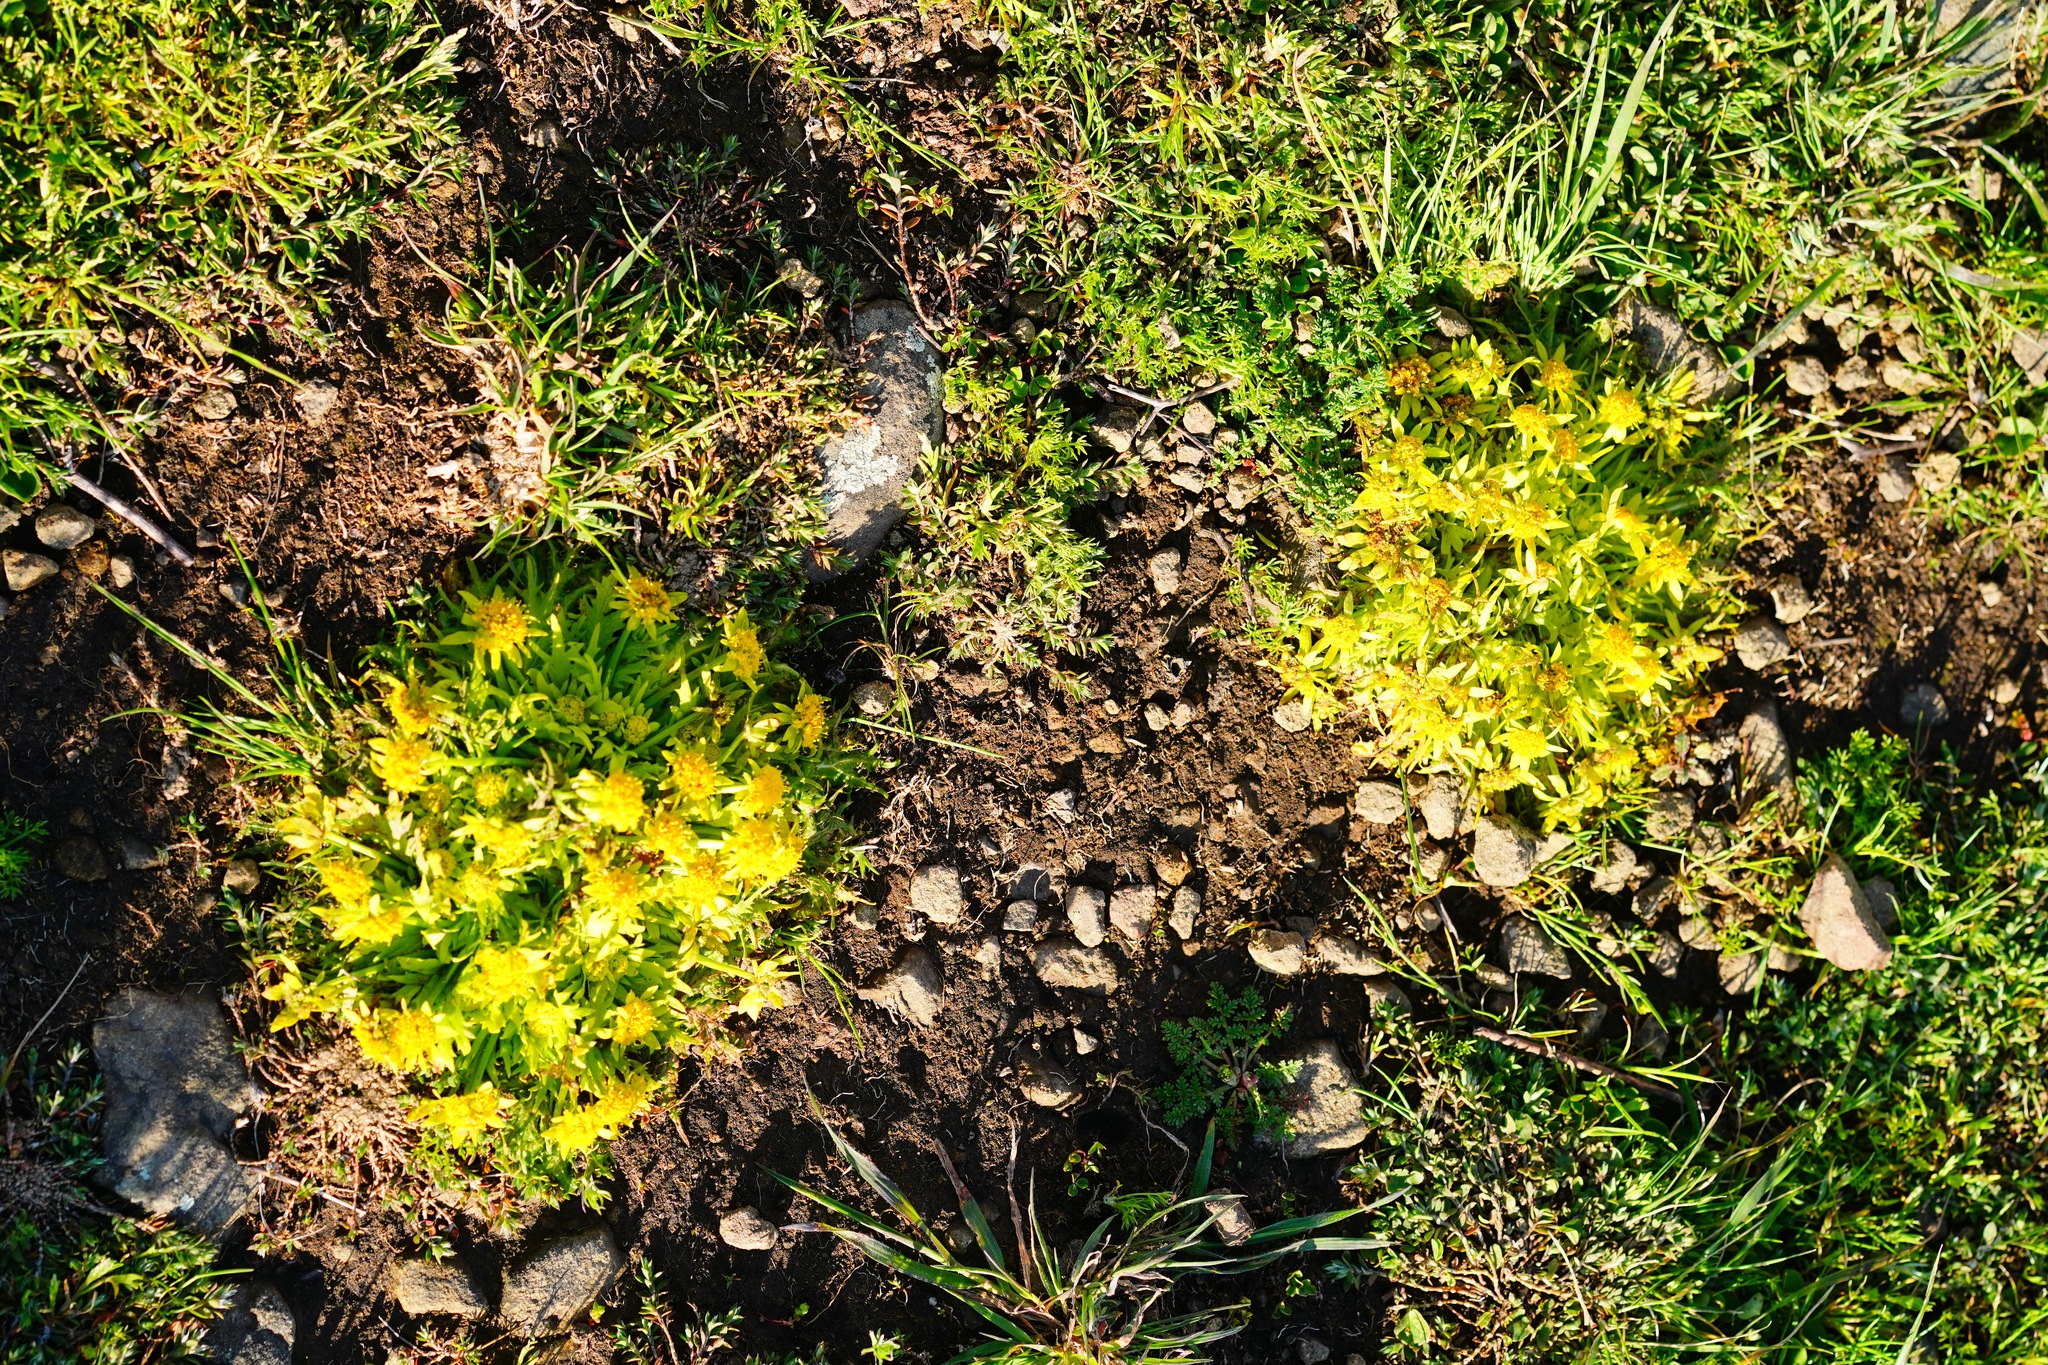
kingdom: Plantae
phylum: Tracheophyta
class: Magnoliopsida
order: Apiales
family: Apiaceae
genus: Sanicula
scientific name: Sanicula arctopoides
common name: Footsteps-of-spring
